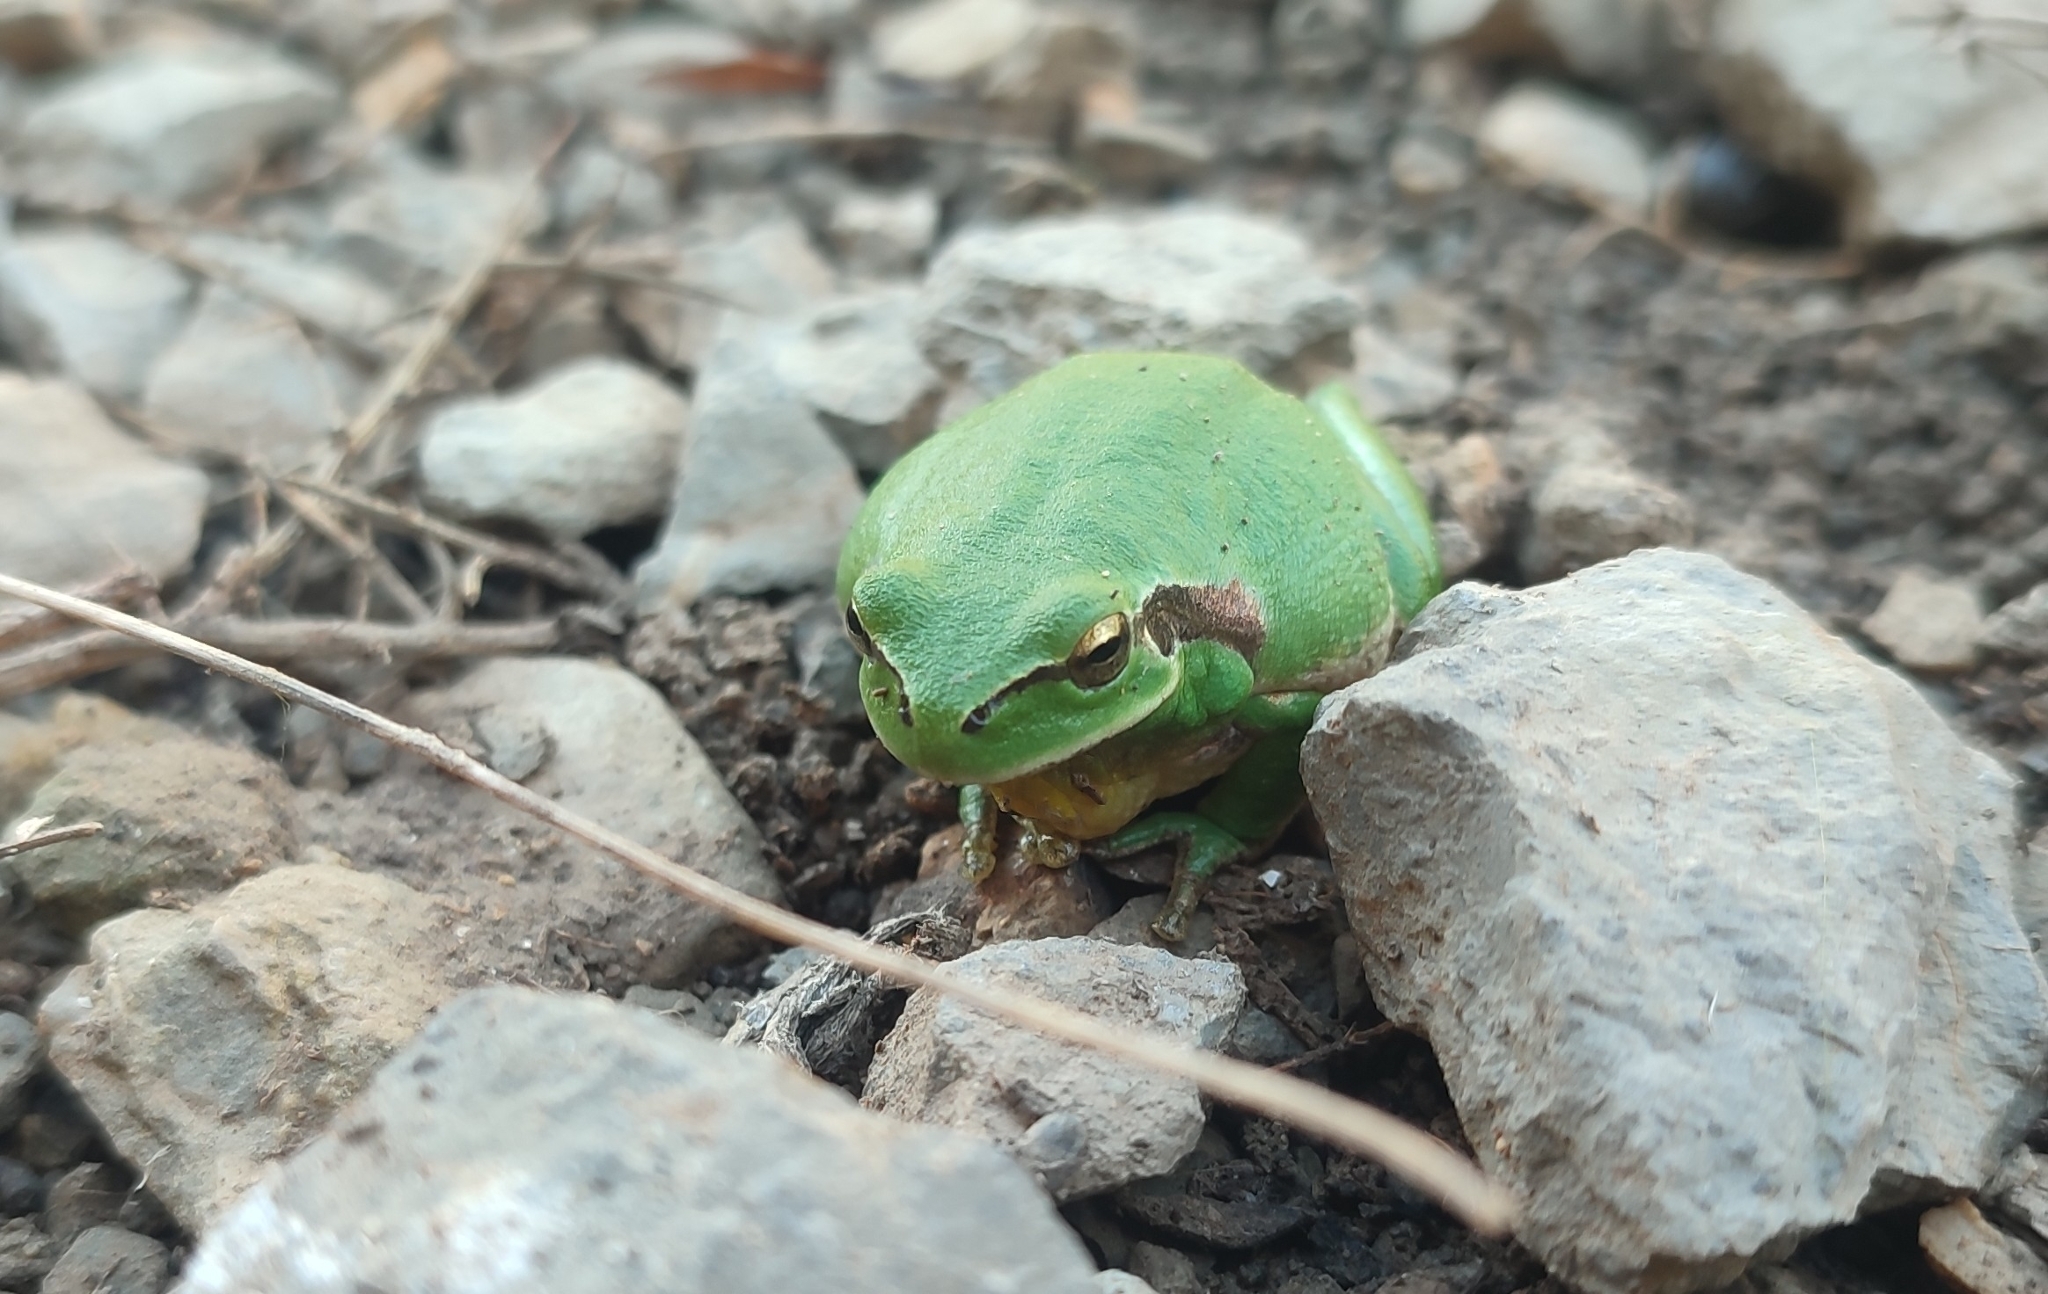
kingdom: Animalia
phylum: Chordata
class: Amphibia
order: Anura
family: Hylidae
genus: Hyla
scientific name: Hyla meridionalis
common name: Stripeless tree frog
